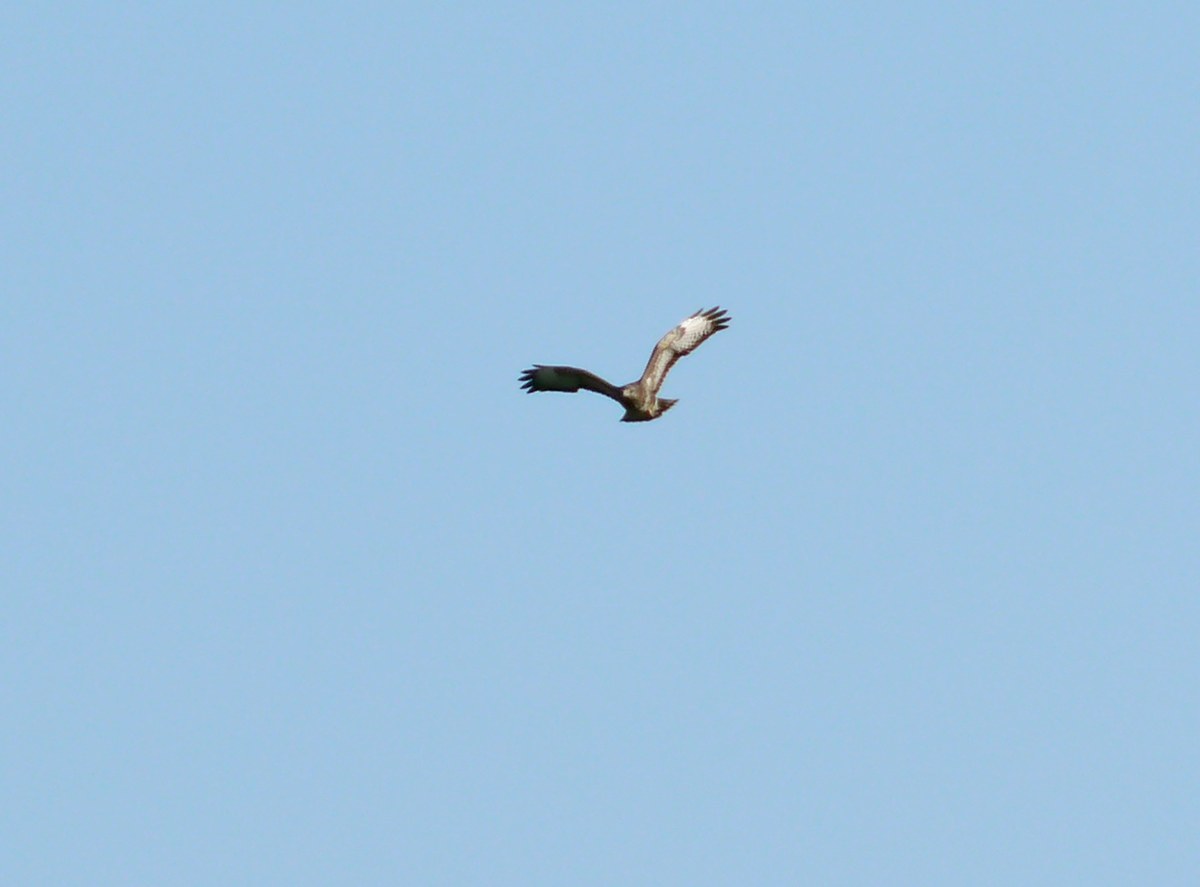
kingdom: Animalia
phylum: Chordata
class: Aves
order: Accipitriformes
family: Accipitridae
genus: Buteo
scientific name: Buteo buteo
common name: Common buzzard
